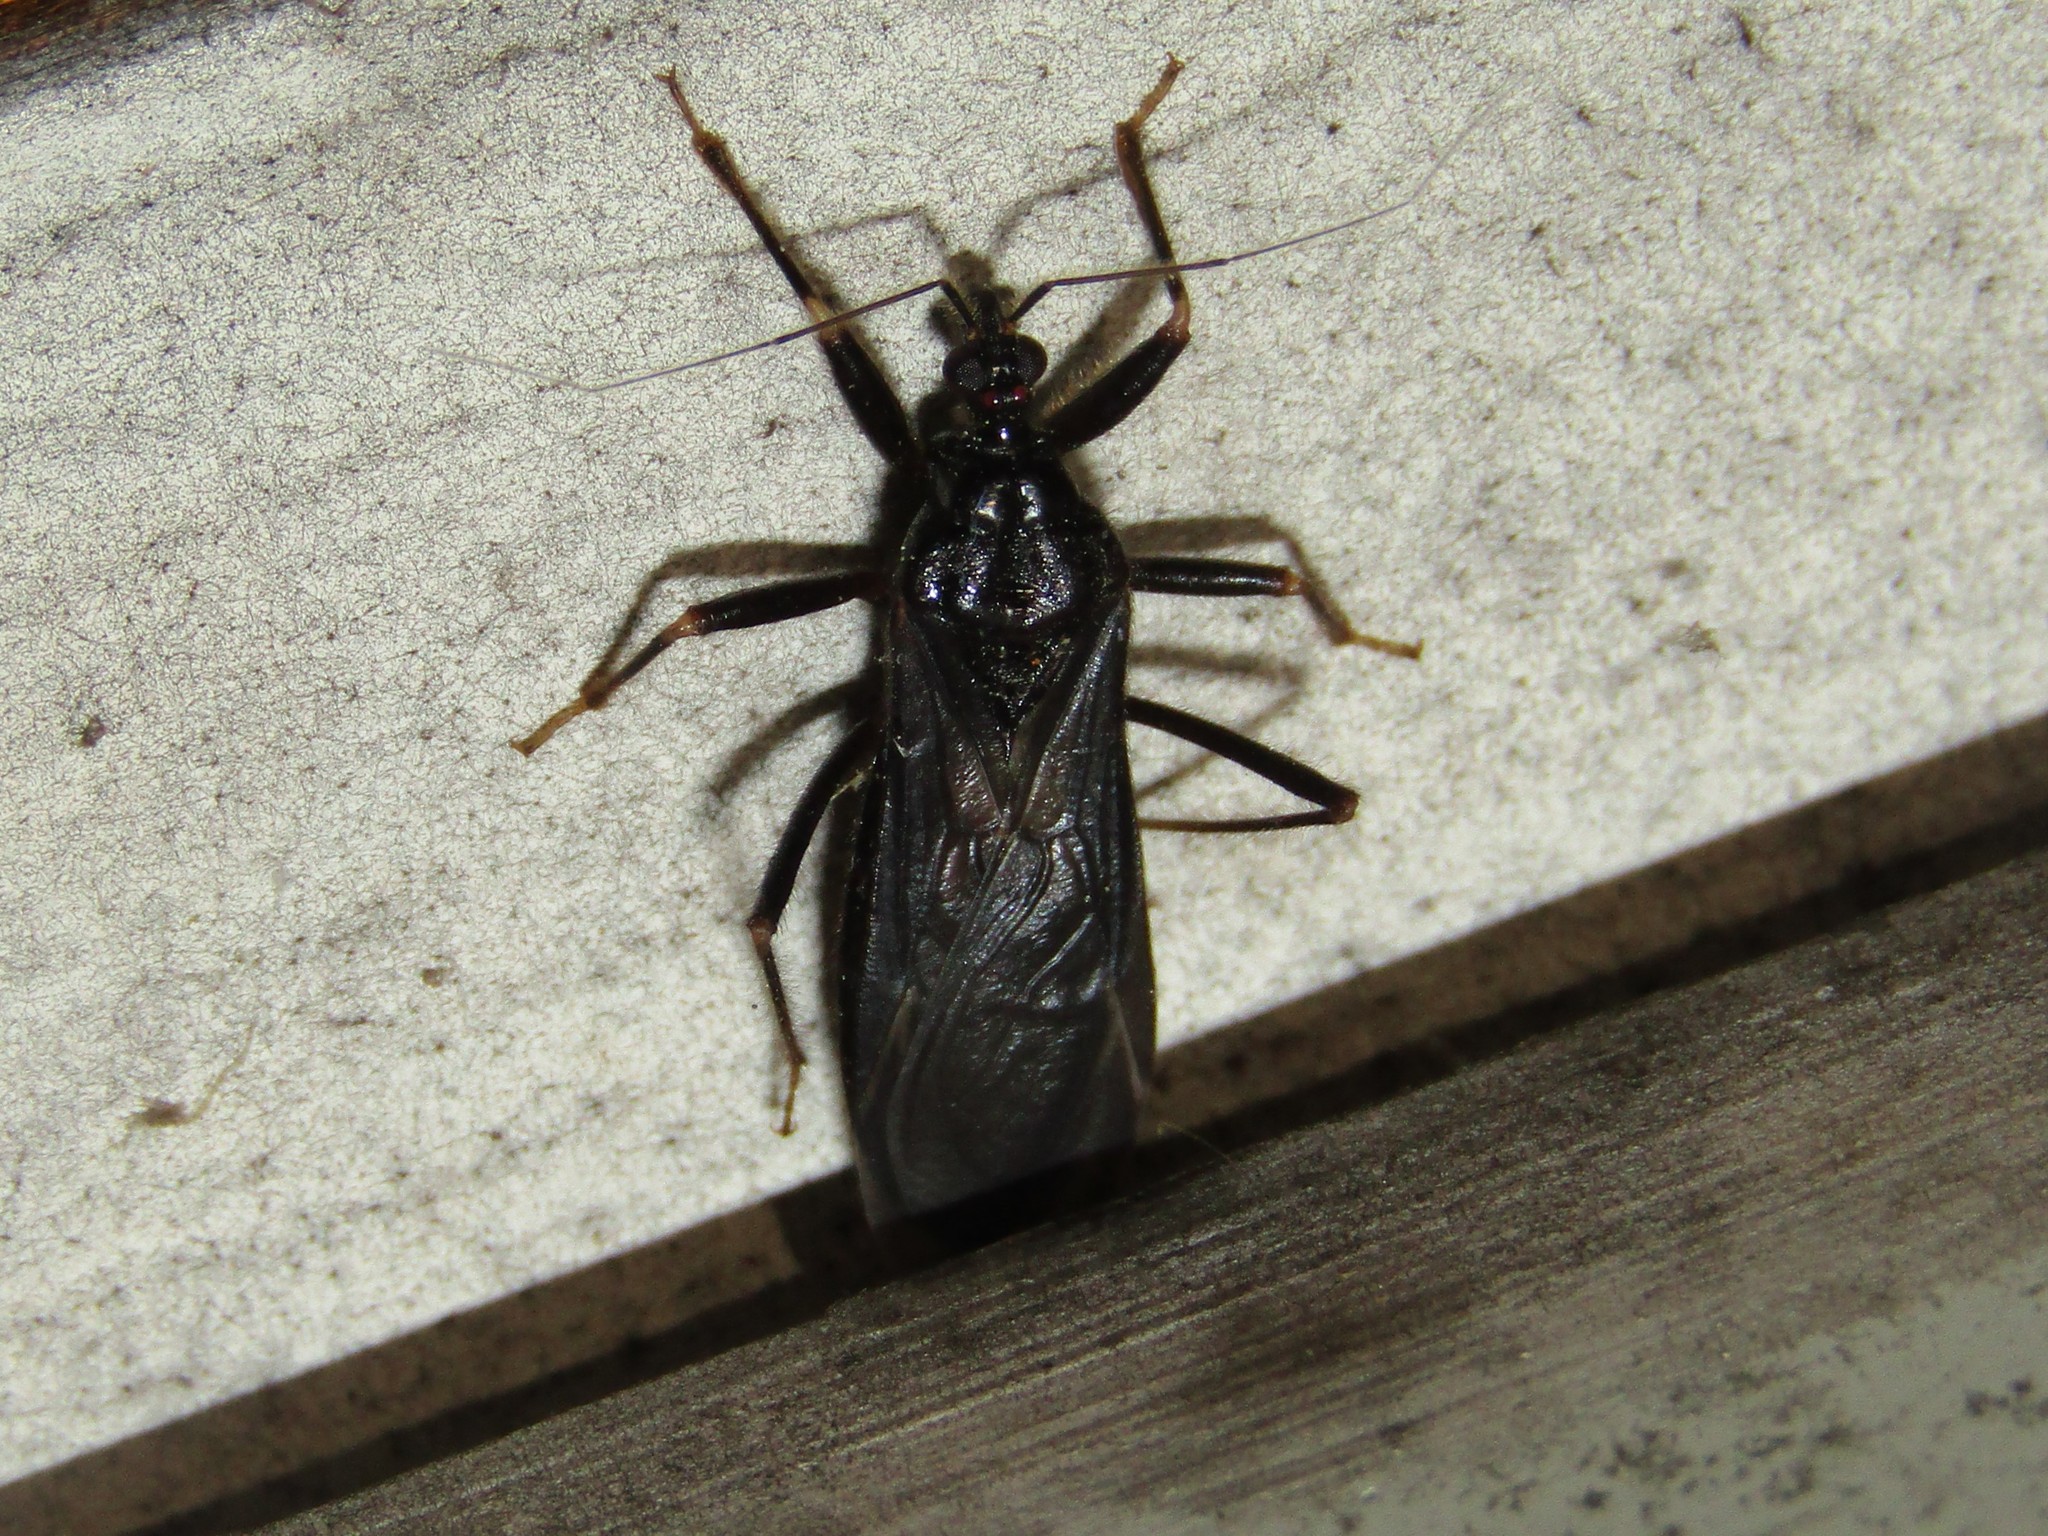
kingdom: Animalia
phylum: Arthropoda
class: Insecta
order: Hemiptera
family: Reduviidae
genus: Reduvius
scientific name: Reduvius personatus
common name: Masked hunter
